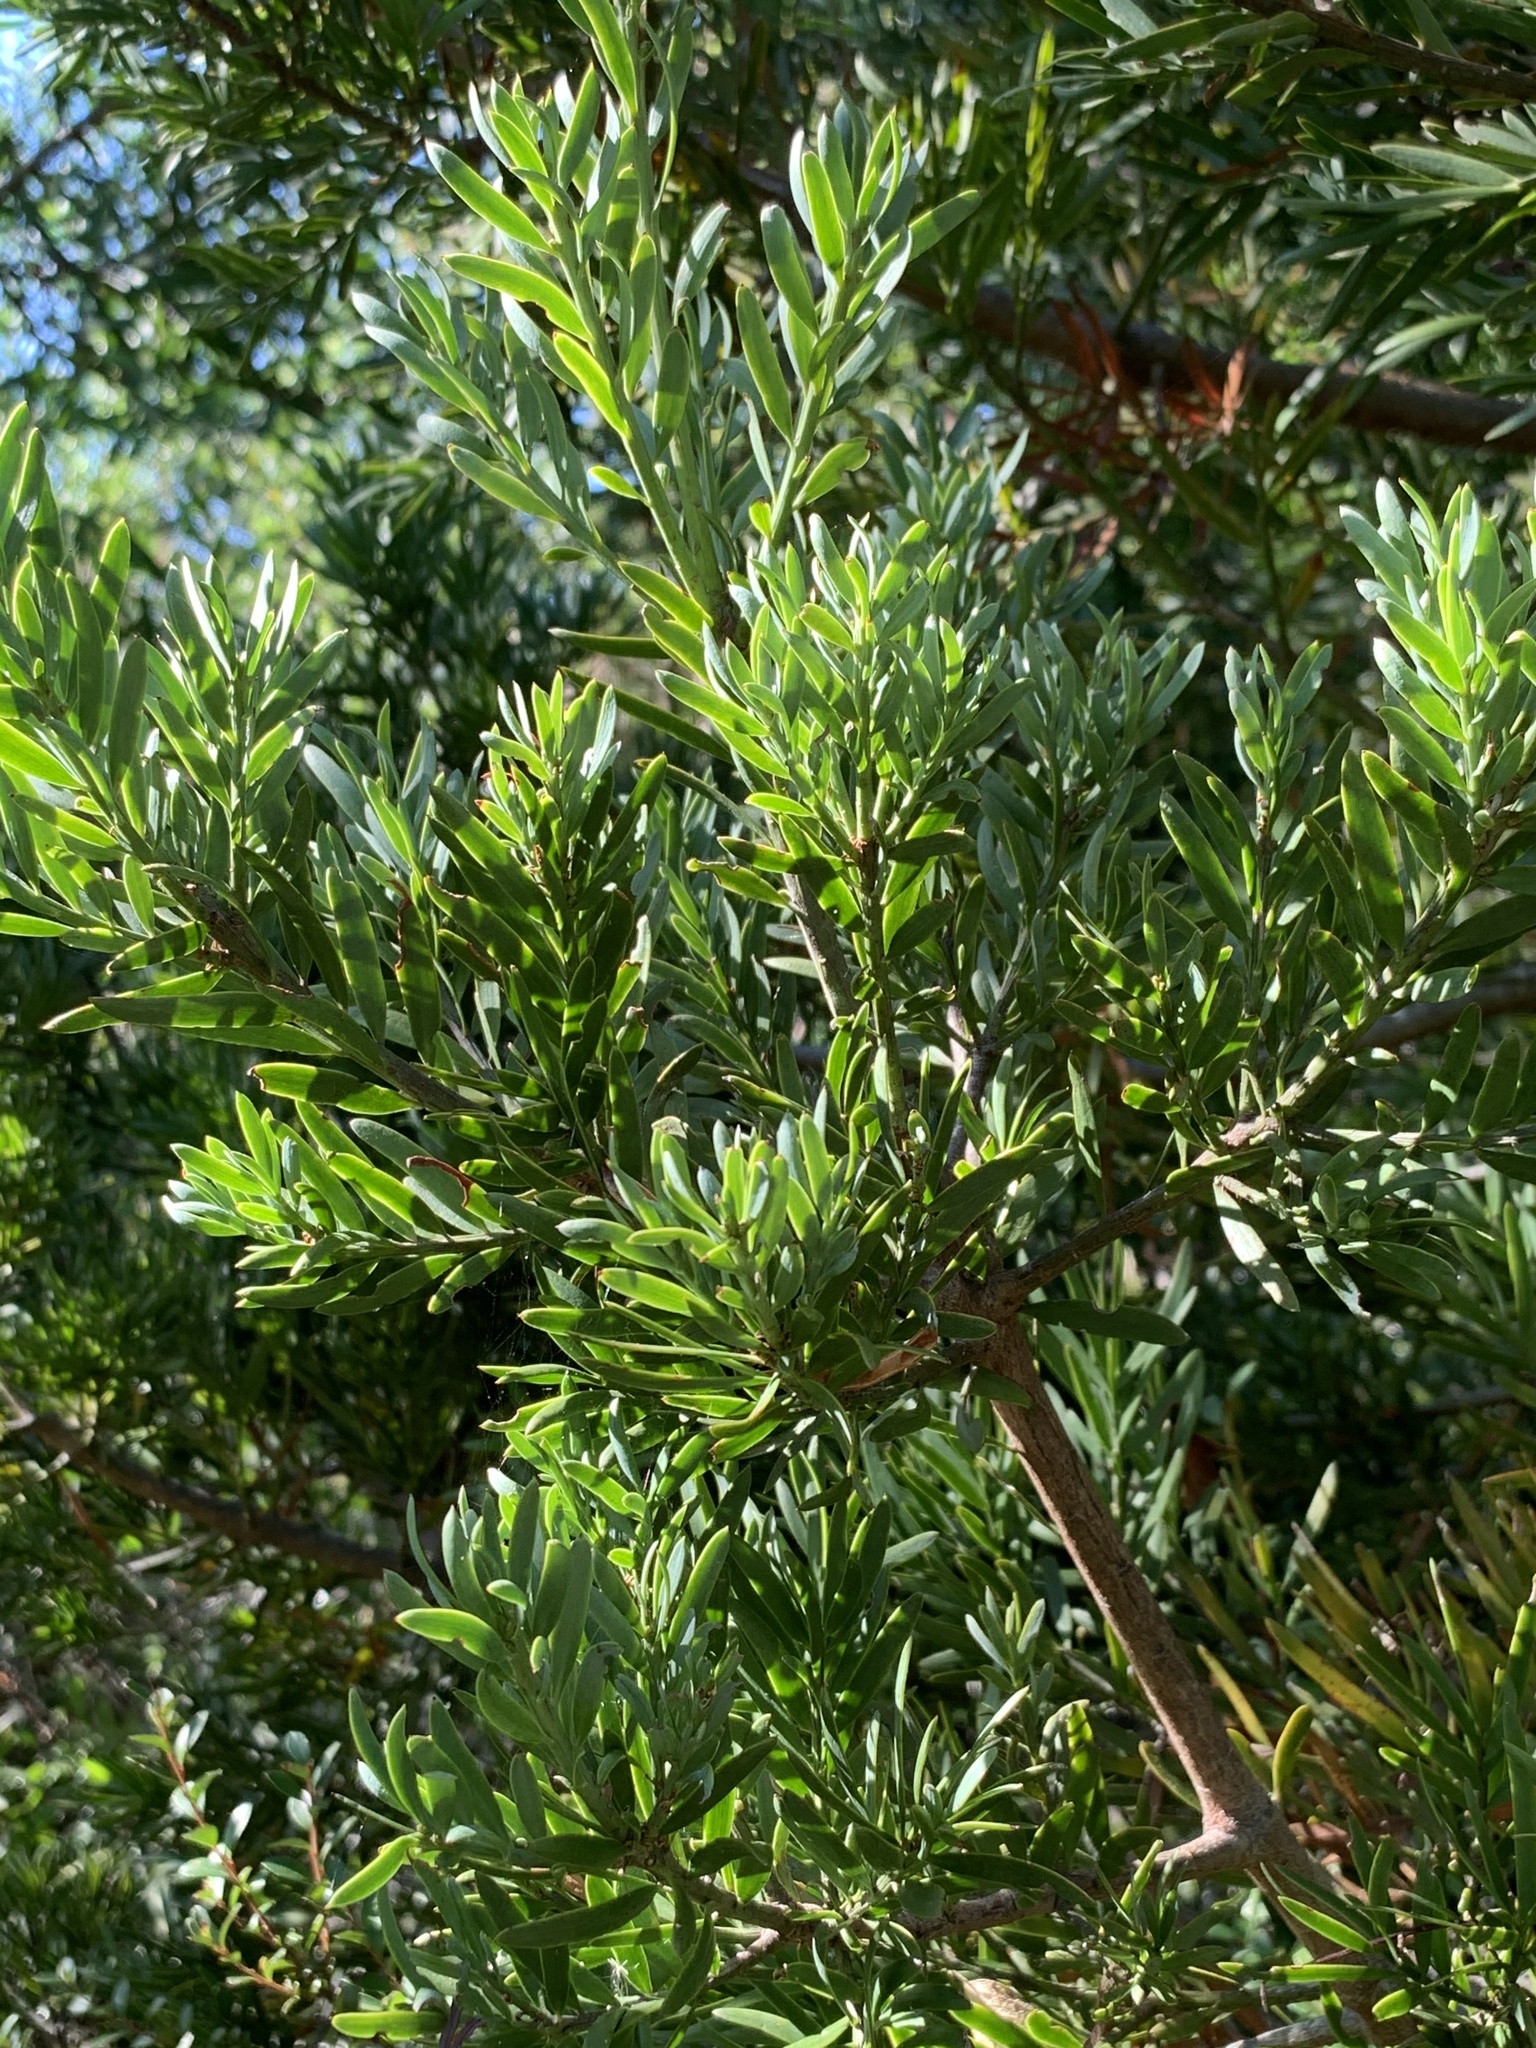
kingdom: Plantae
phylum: Tracheophyta
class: Pinopsida
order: Pinales
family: Podocarpaceae
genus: Afrocarpus
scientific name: Afrocarpus falcatus
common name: Bastard yellowwood
